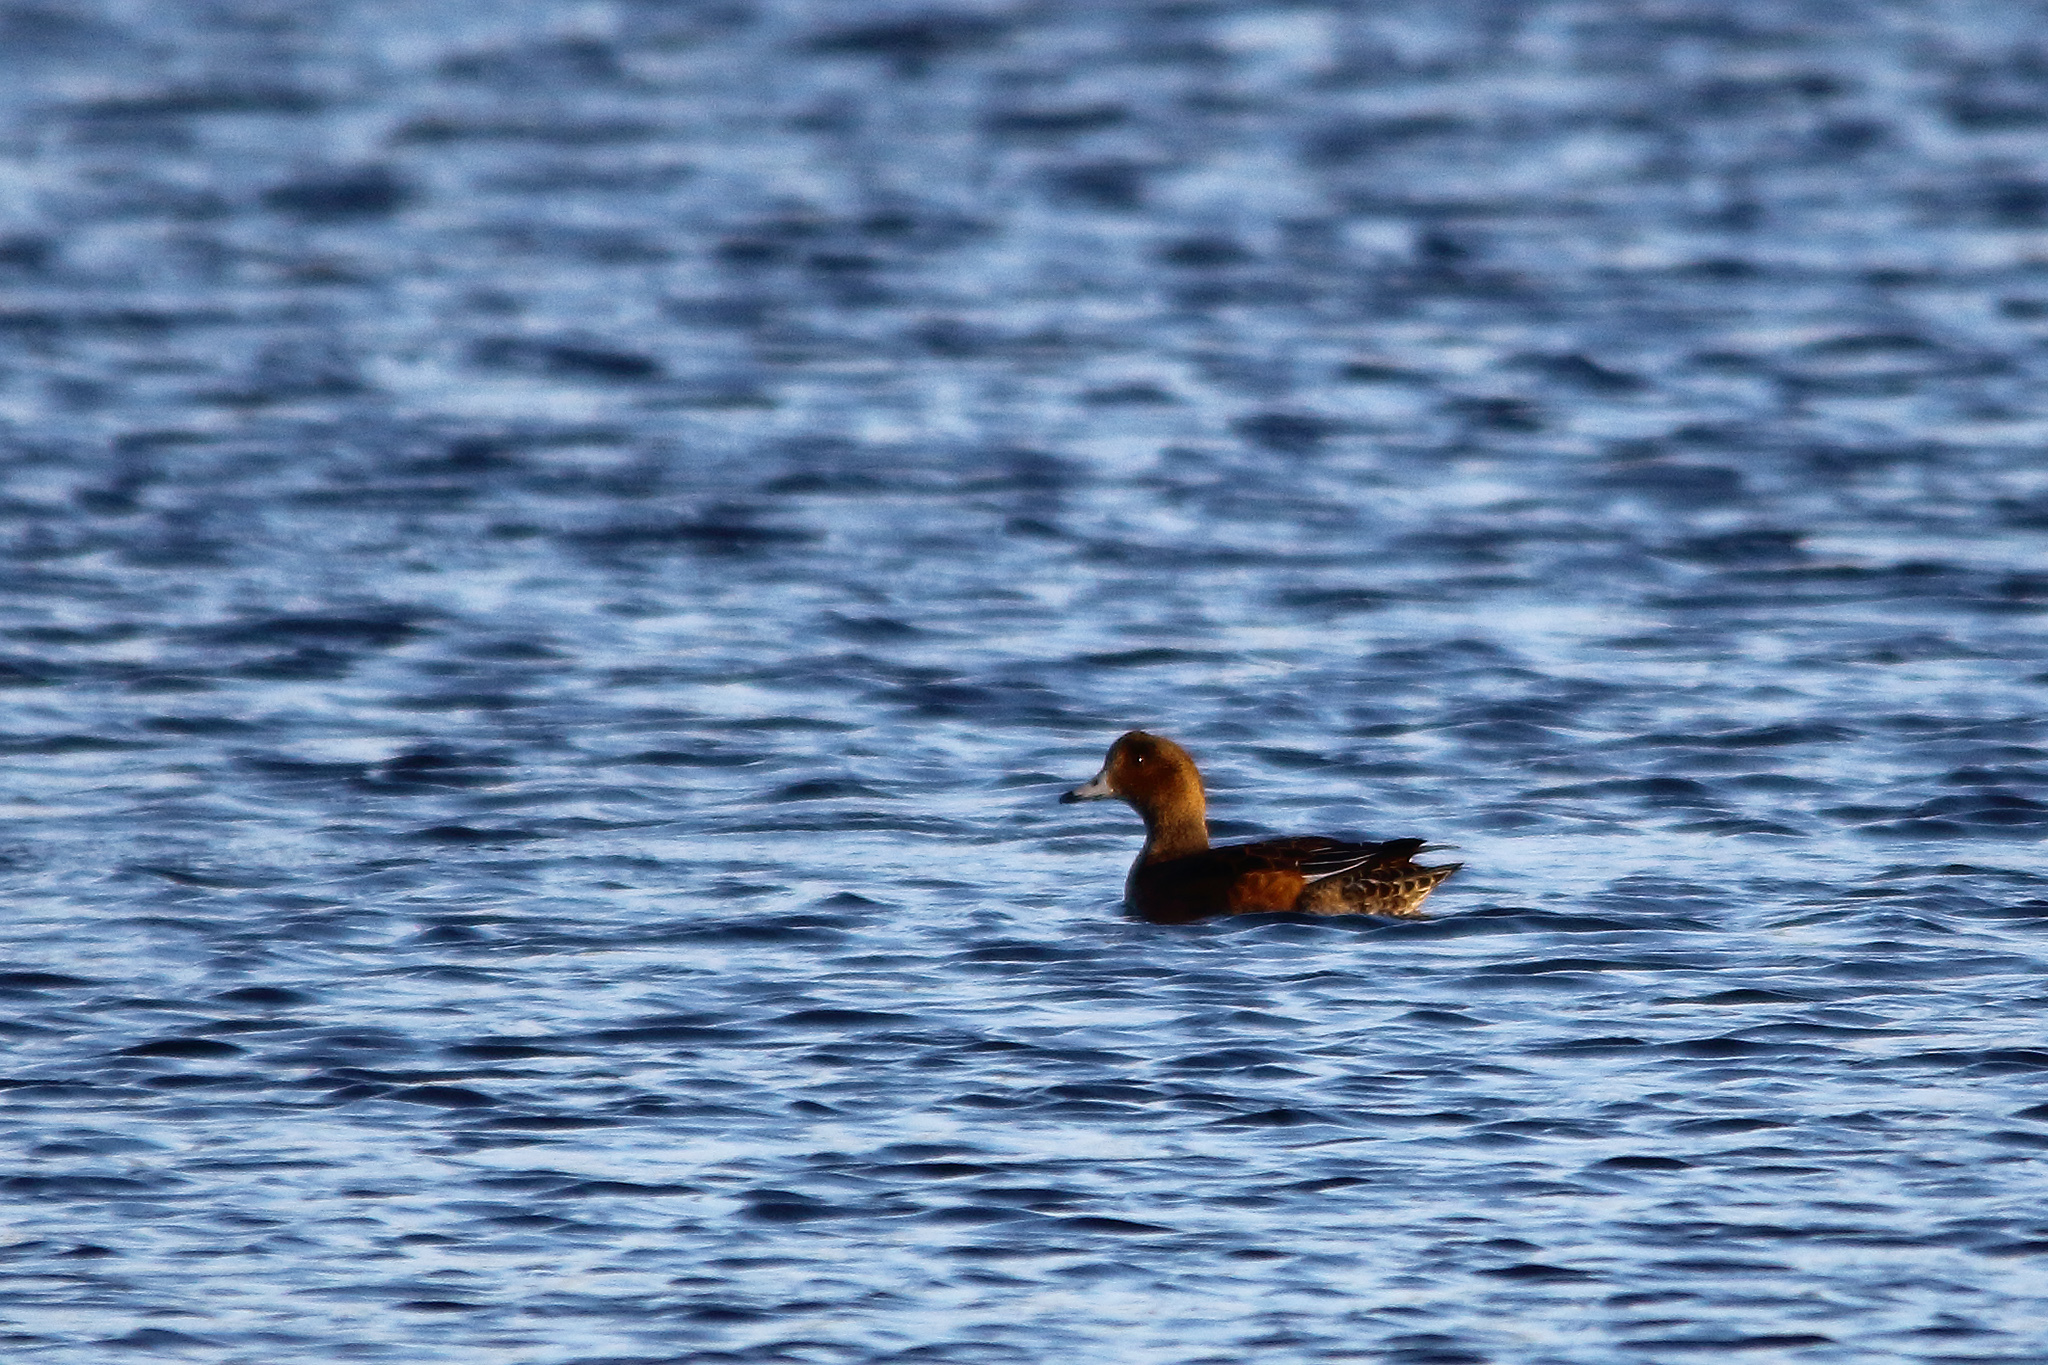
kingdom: Animalia
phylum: Chordata
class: Aves
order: Anseriformes
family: Anatidae
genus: Mareca
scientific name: Mareca penelope
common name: Eurasian wigeon
